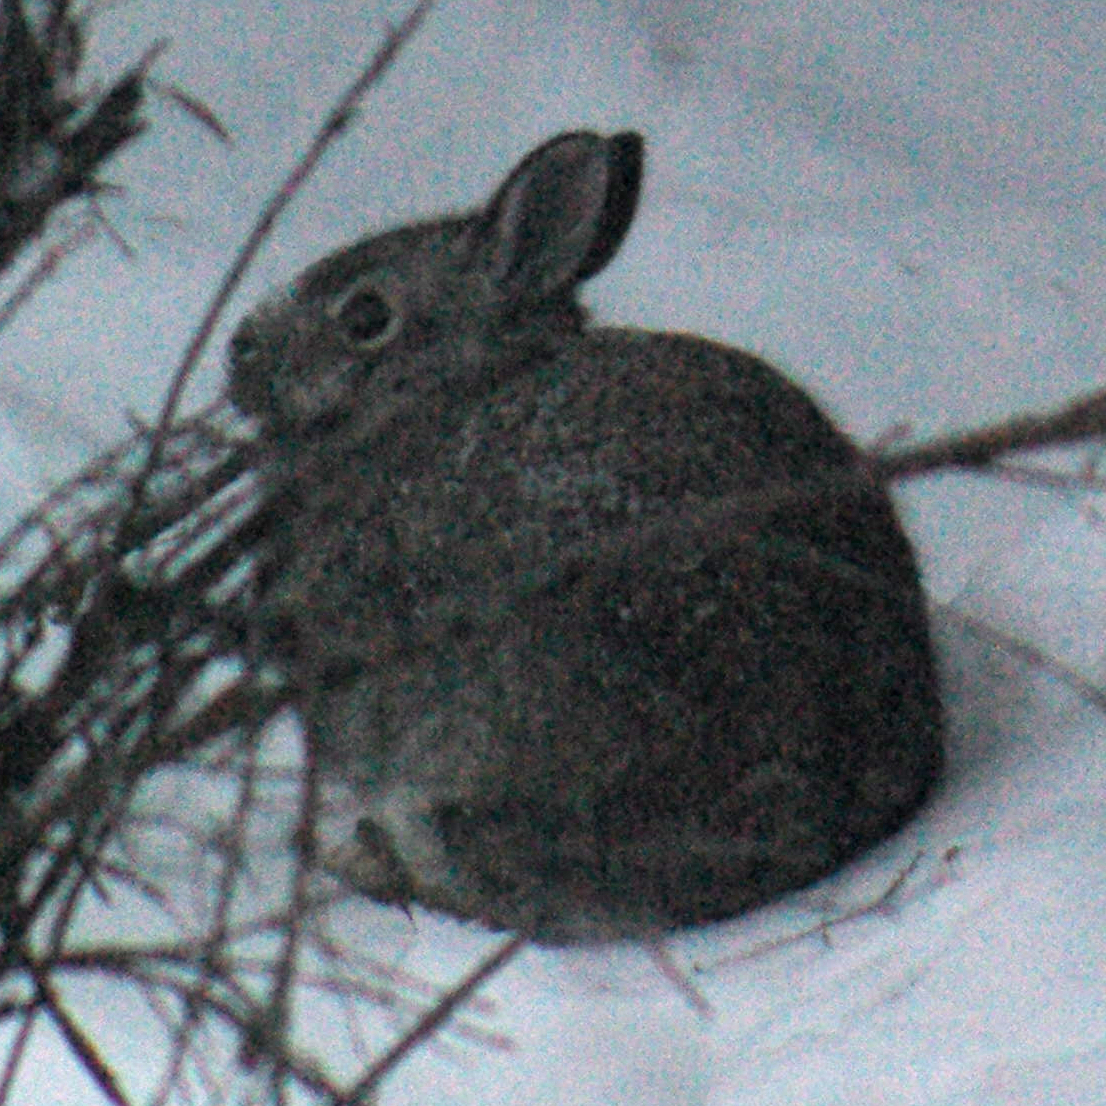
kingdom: Animalia
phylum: Chordata
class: Mammalia
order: Lagomorpha
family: Leporidae
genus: Sylvilagus
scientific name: Sylvilagus floridanus
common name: Eastern cottontail
